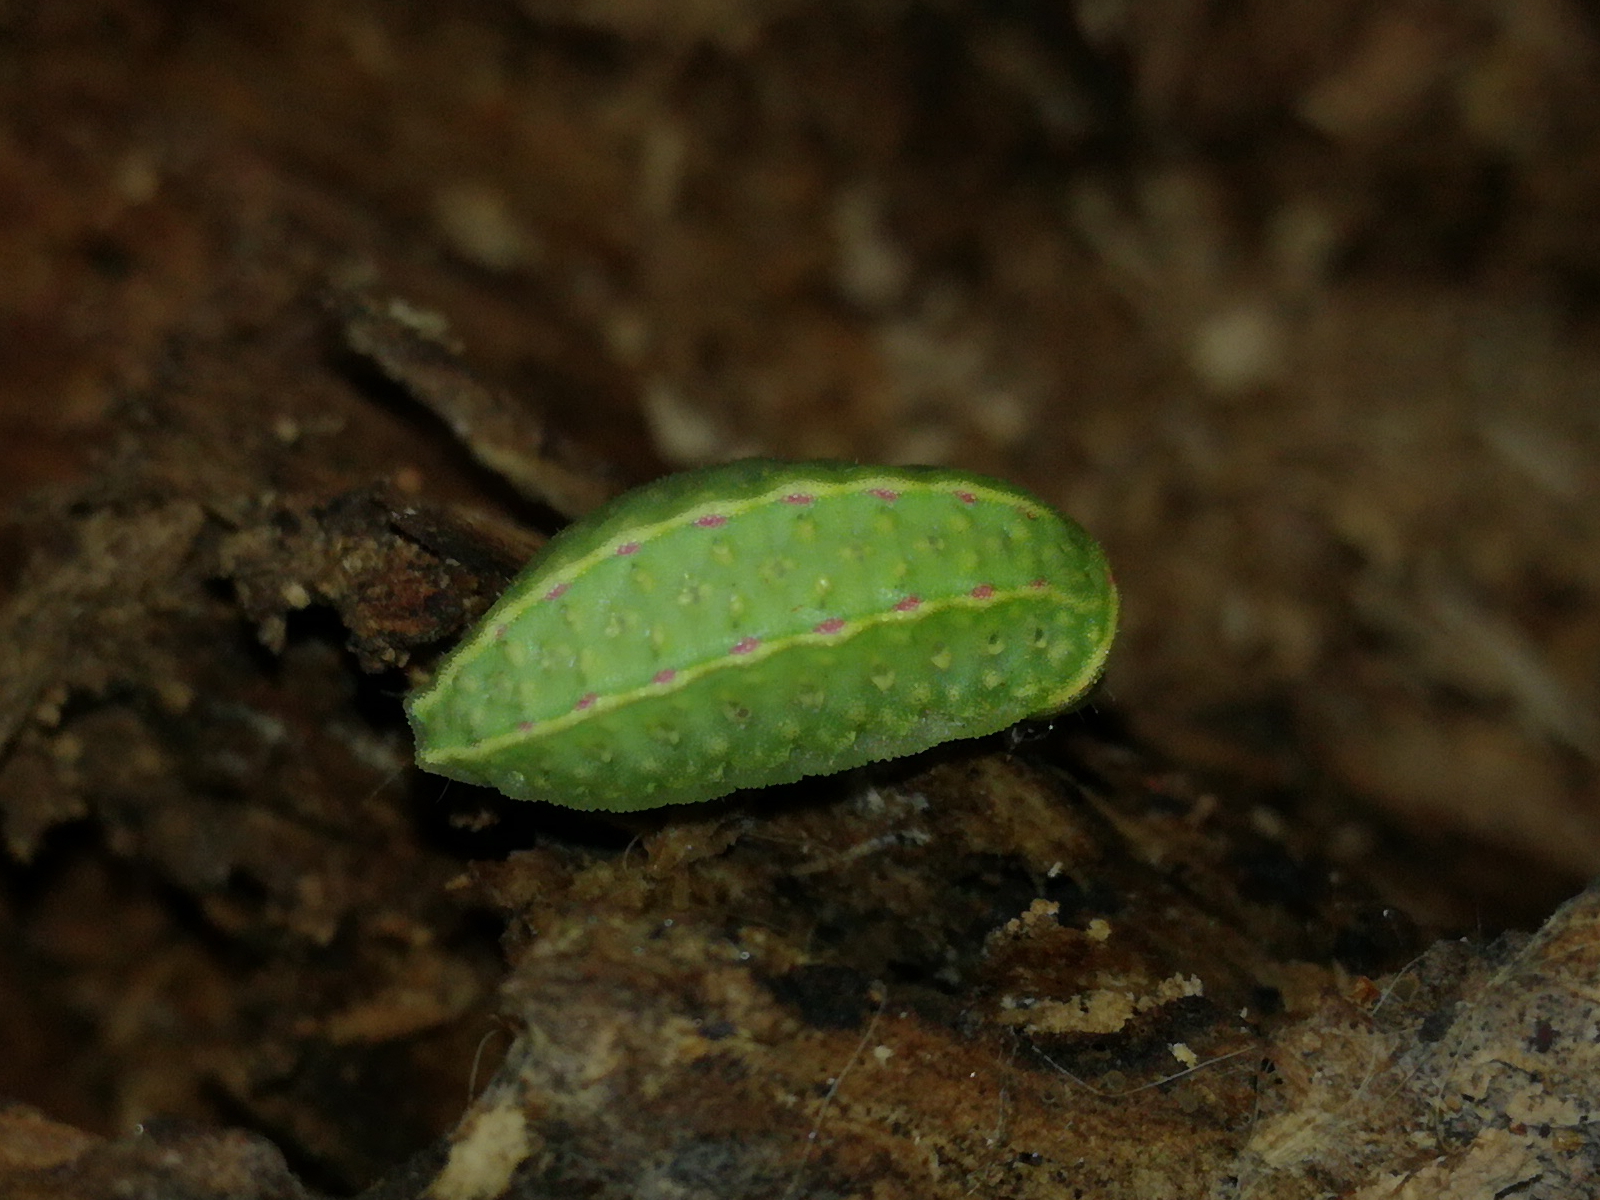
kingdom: Animalia
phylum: Arthropoda
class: Insecta
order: Lepidoptera
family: Limacodidae
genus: Apoda
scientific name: Apoda limacodes
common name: Festoon
